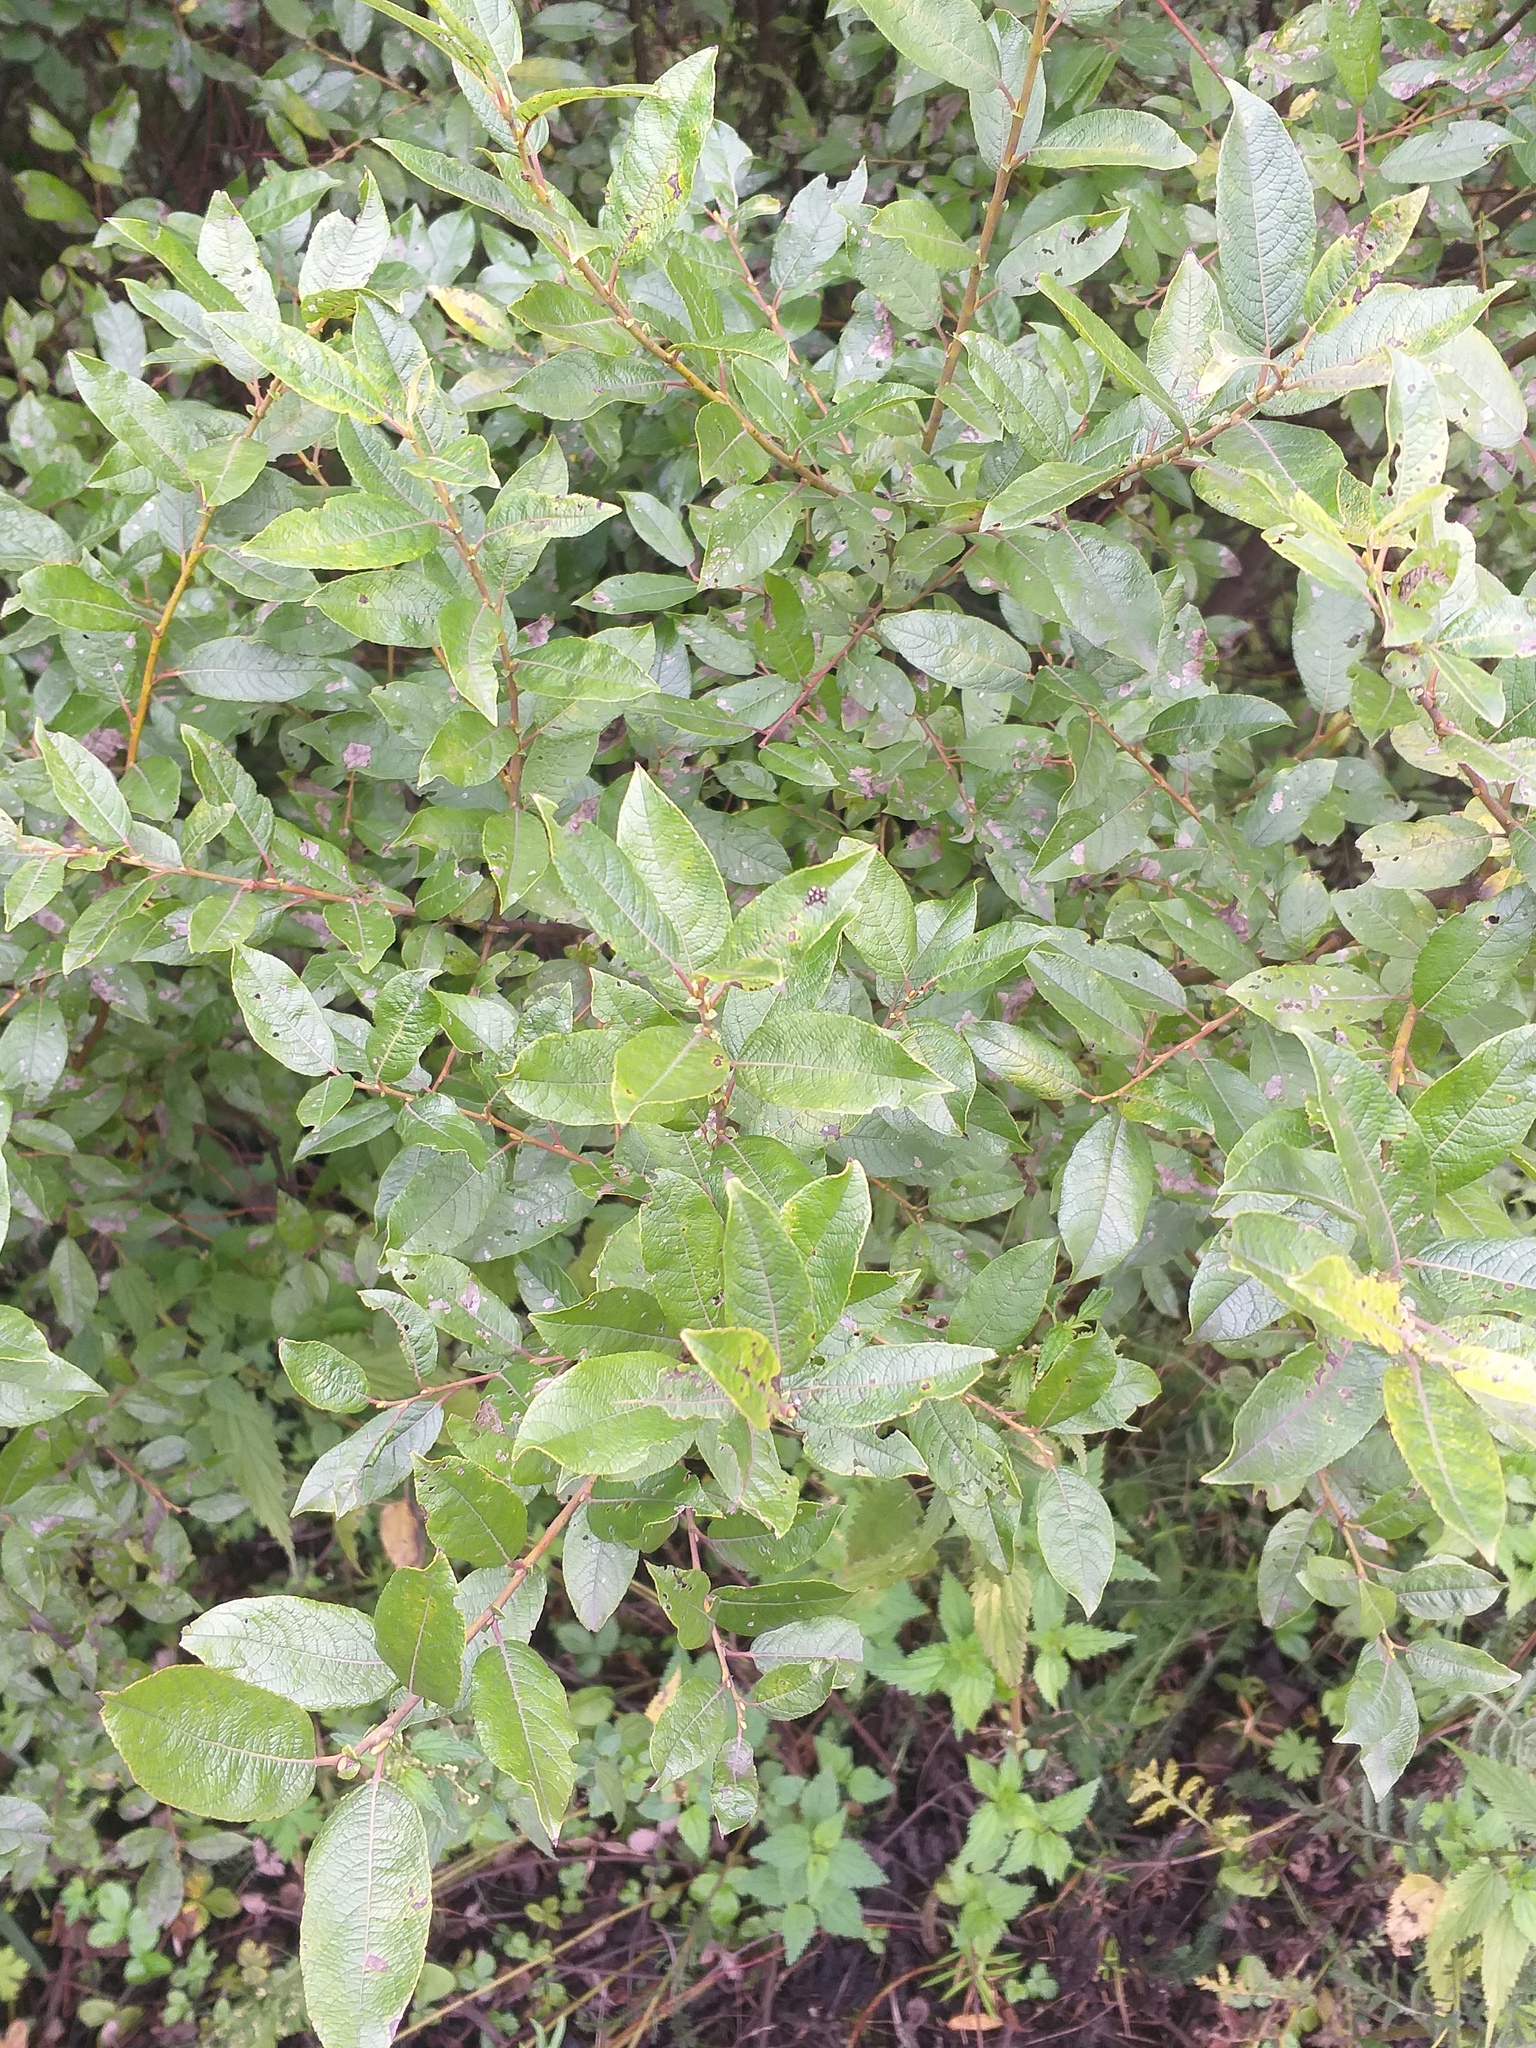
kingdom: Plantae
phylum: Tracheophyta
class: Magnoliopsida
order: Malpighiales
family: Salicaceae
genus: Salix
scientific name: Salix myrsinifolia
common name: Dark-leaved willow
